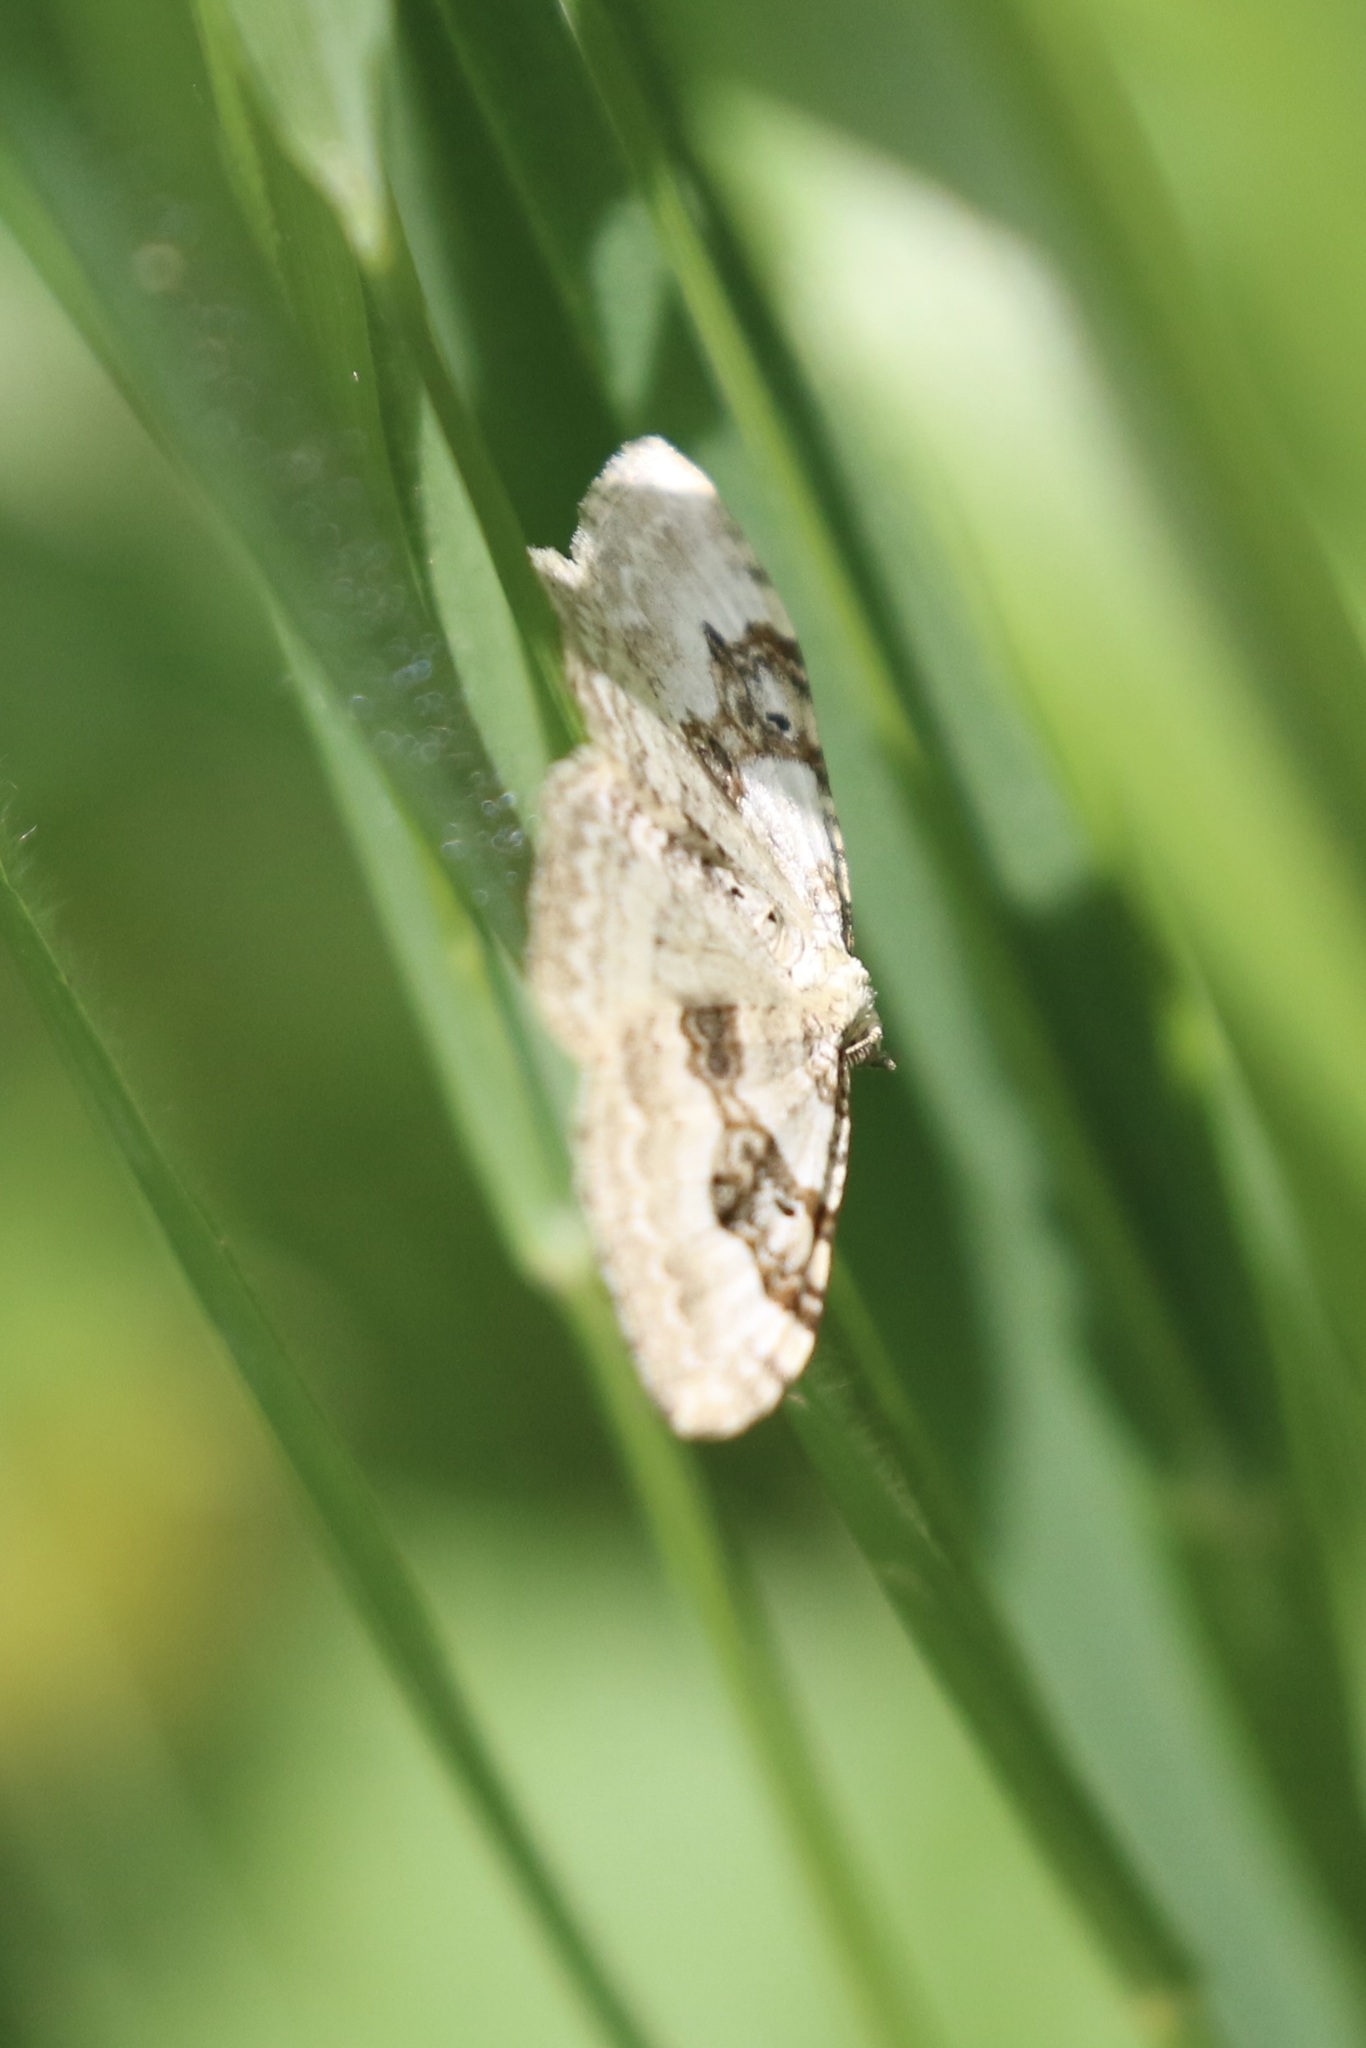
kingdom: Animalia
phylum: Arthropoda
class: Insecta
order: Lepidoptera
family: Geometridae
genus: Xanthorhoe
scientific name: Xanthorhoe montanata
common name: Silver-ground carpet
